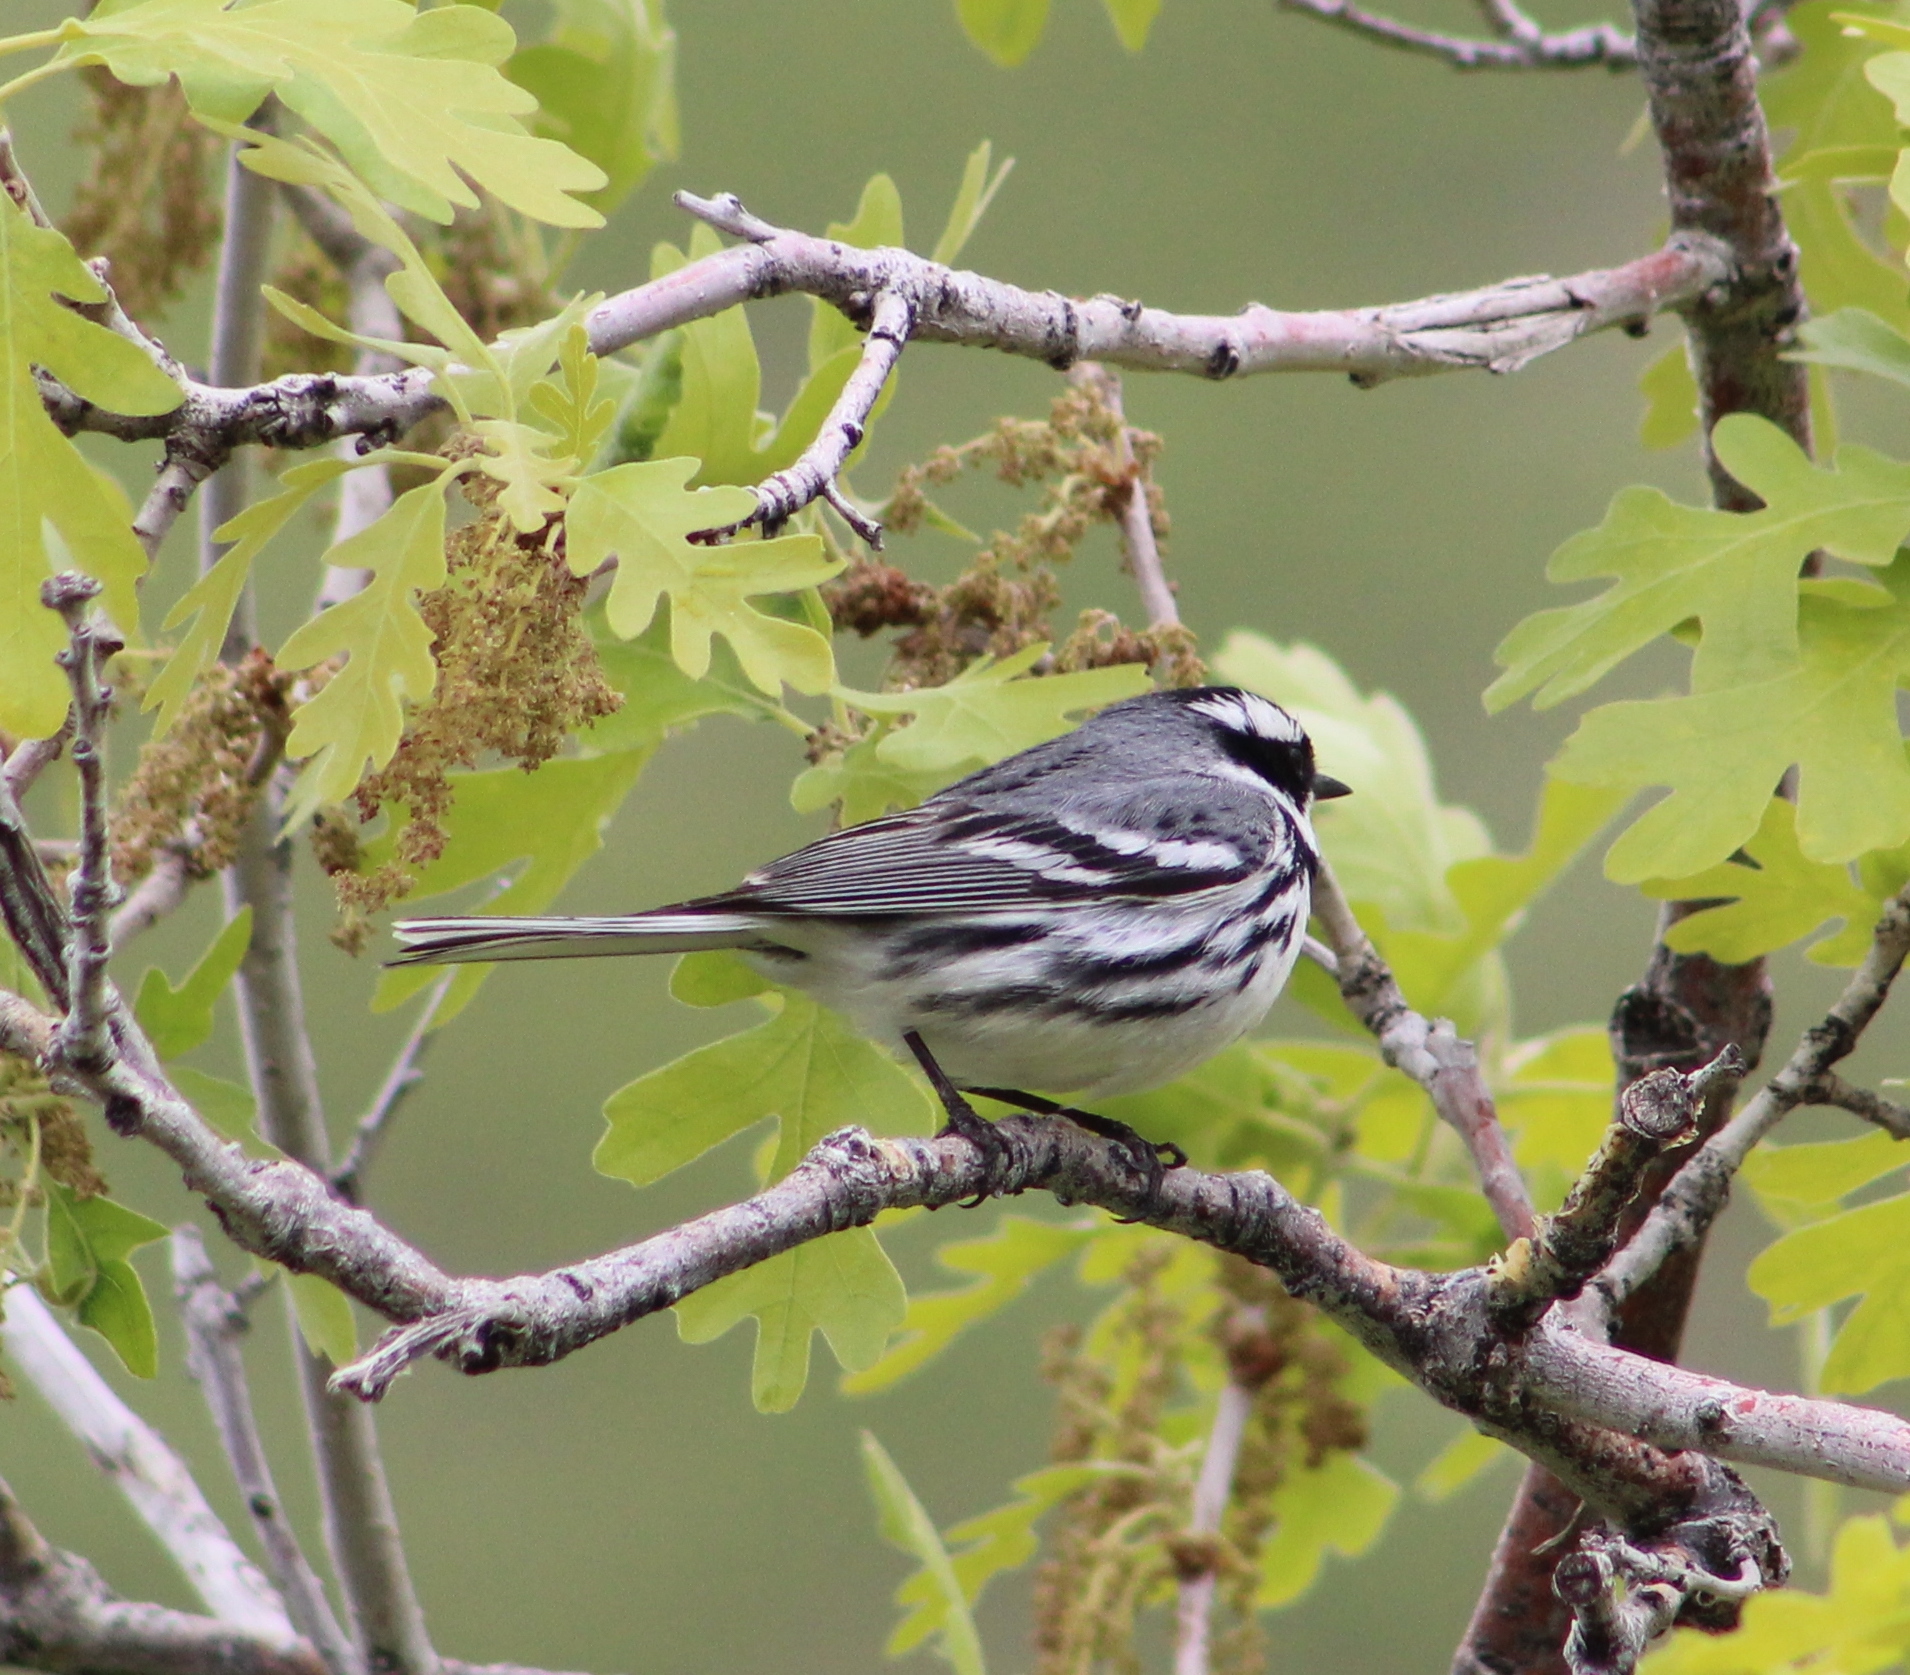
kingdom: Animalia
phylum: Chordata
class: Aves
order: Passeriformes
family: Parulidae
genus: Setophaga
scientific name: Setophaga nigrescens
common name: Black-throated gray warbler
